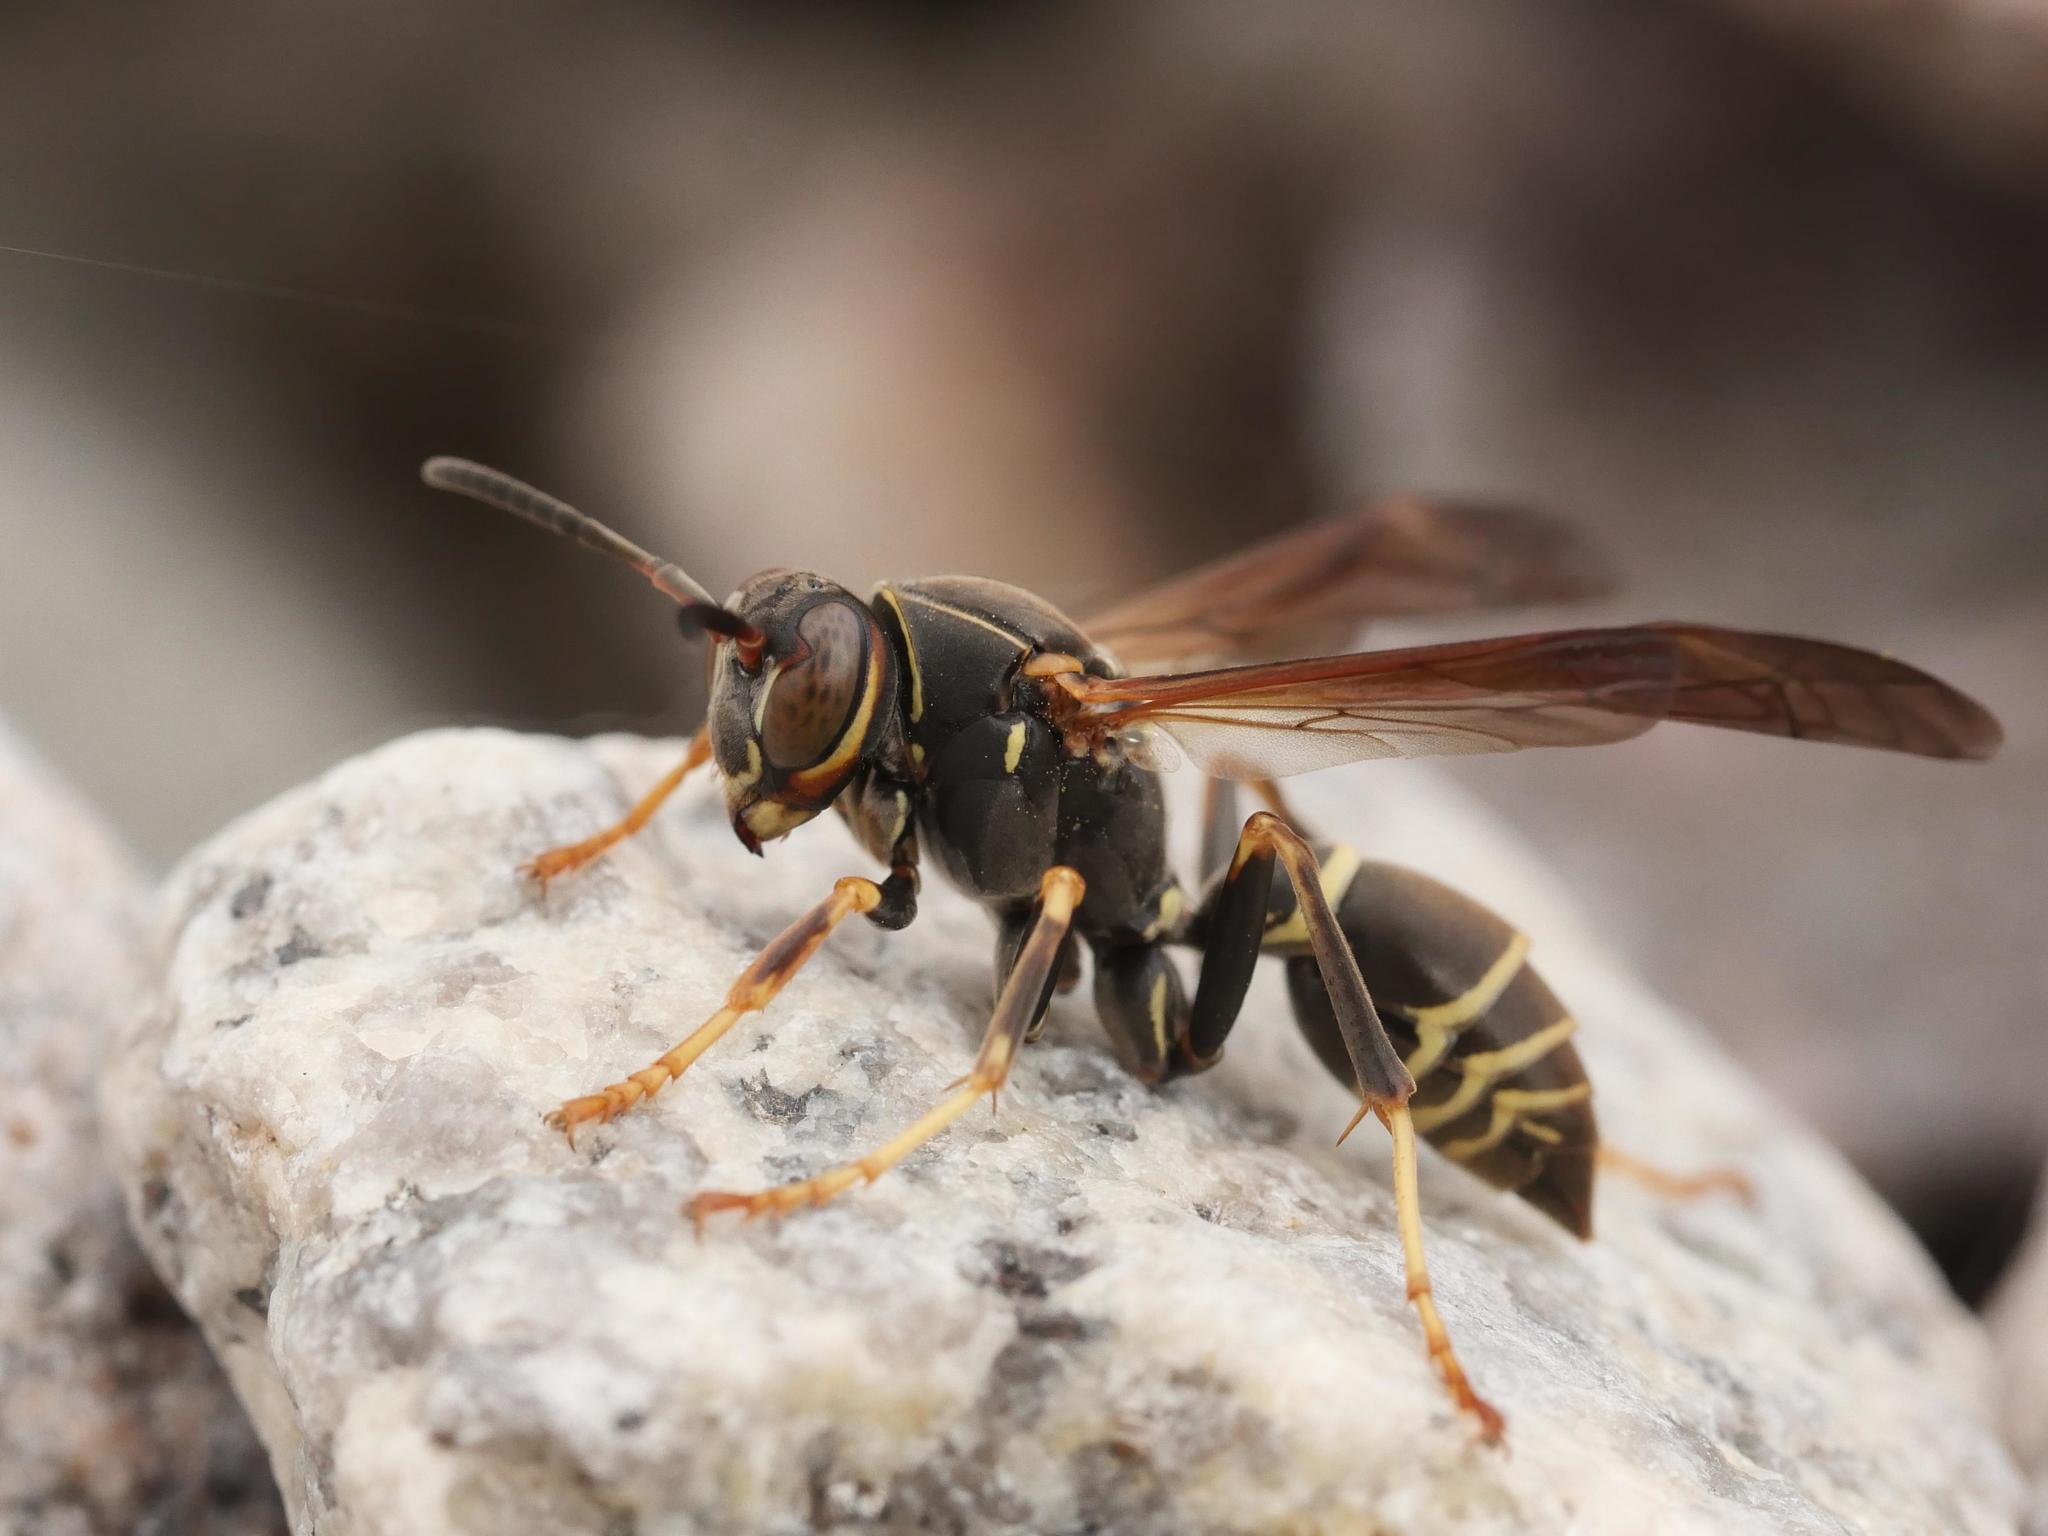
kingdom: Animalia
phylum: Arthropoda
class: Insecta
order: Hymenoptera
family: Eumenidae
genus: Polistes
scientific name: Polistes fuscatus
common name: Dark paper wasp
